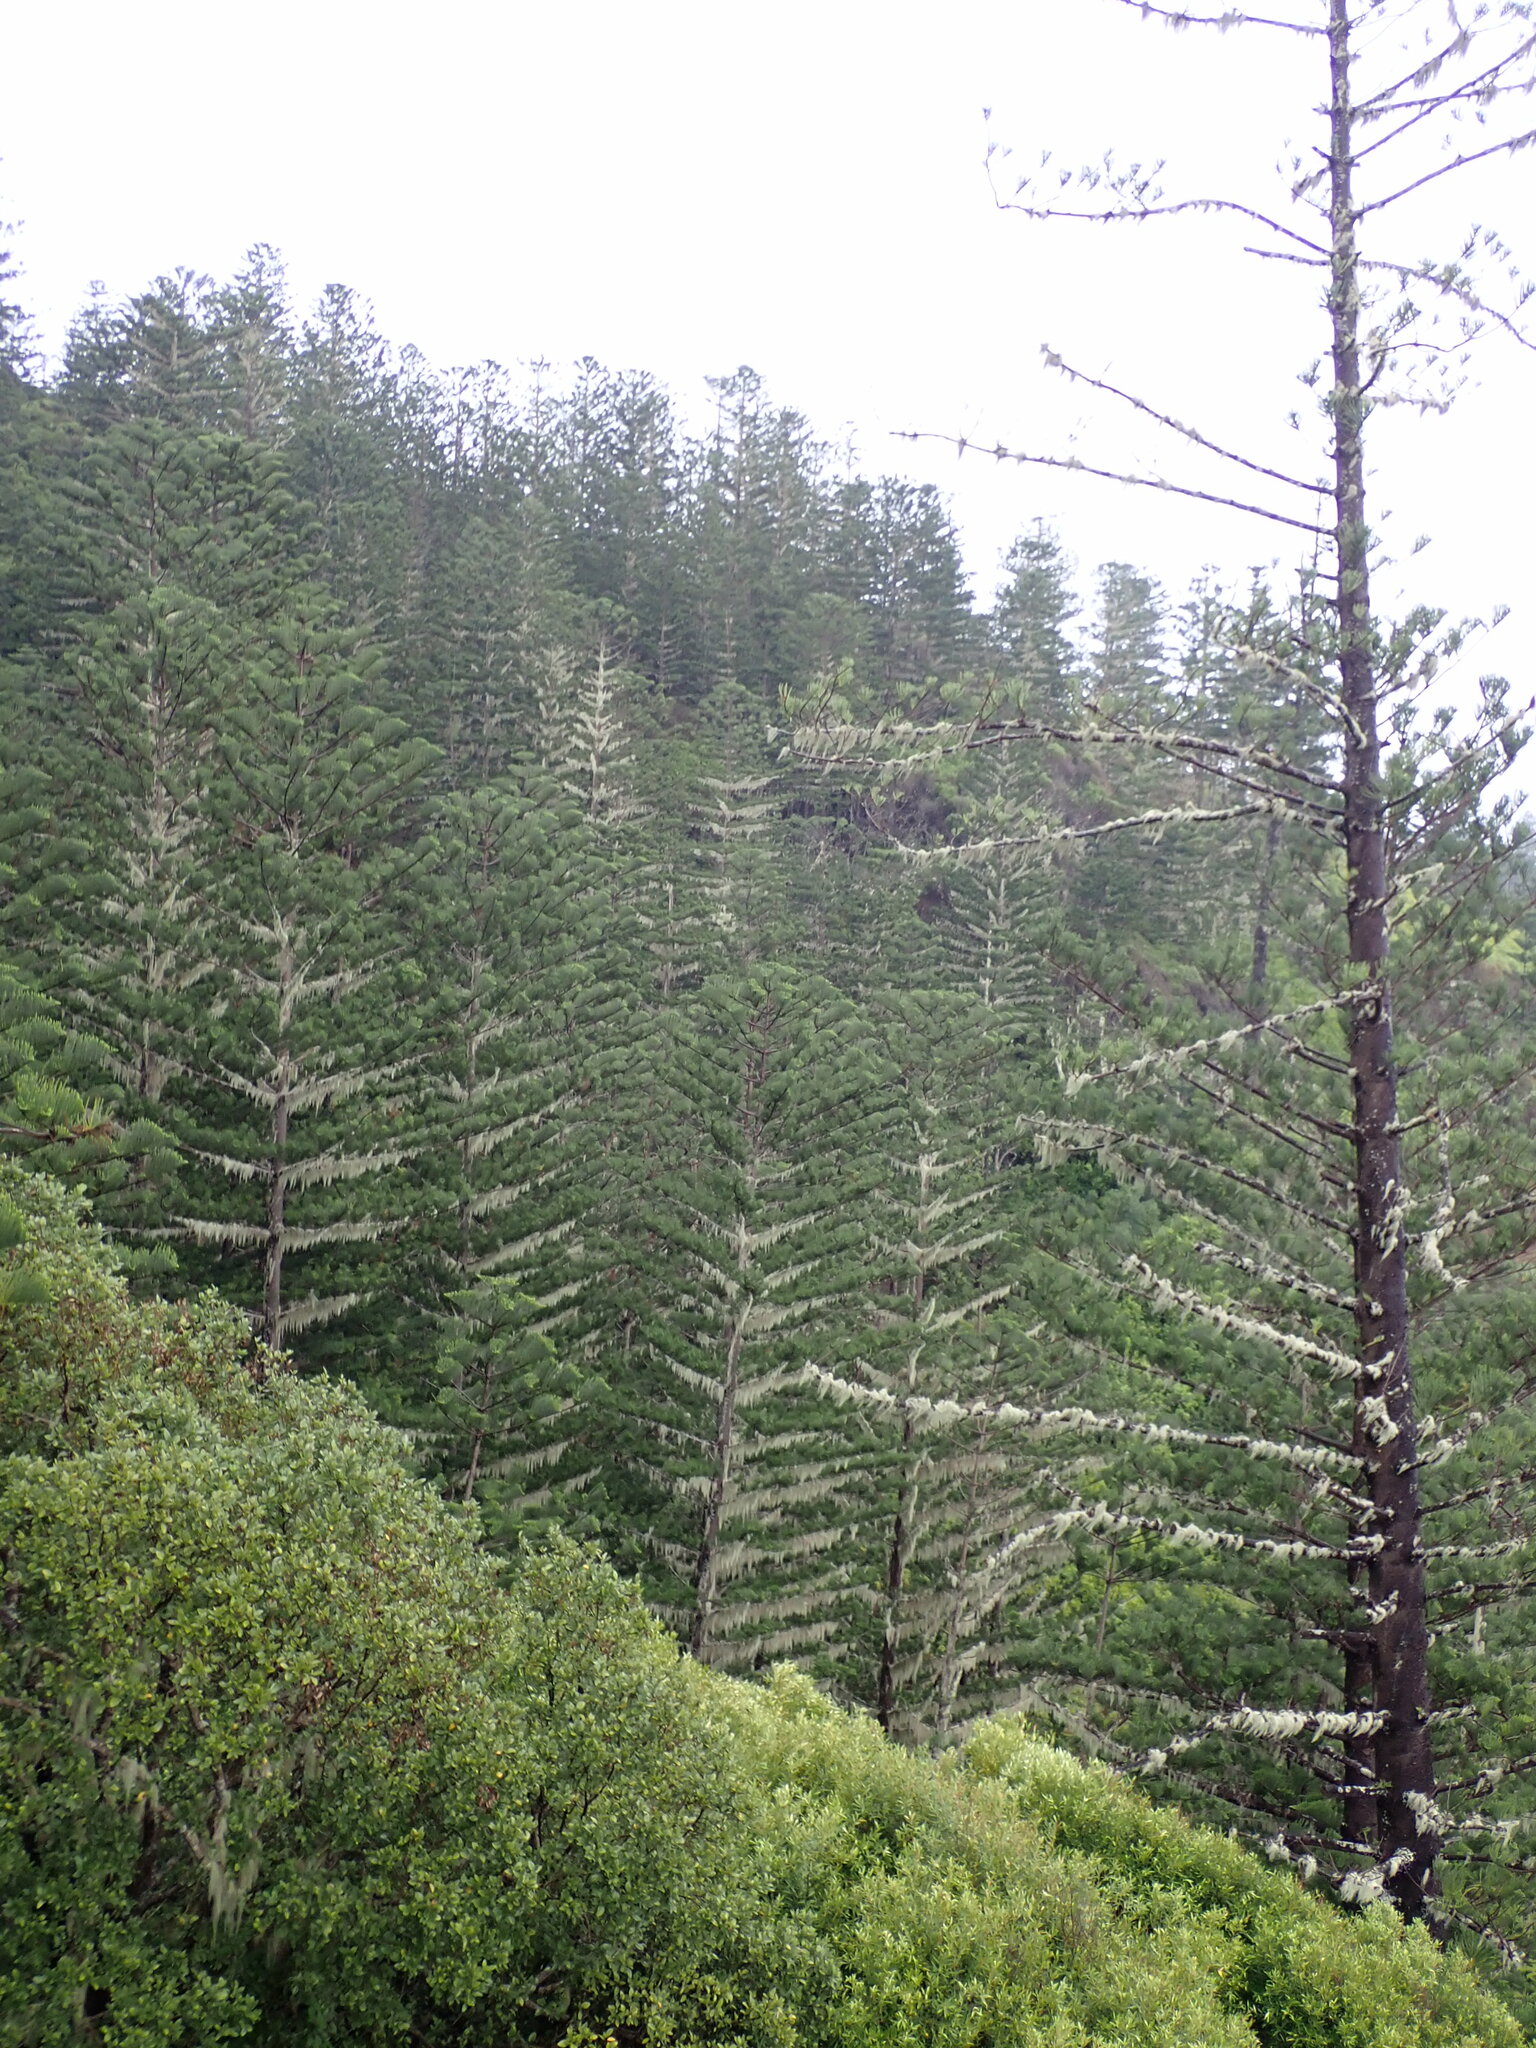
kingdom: Plantae
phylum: Tracheophyta
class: Pinopsida
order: Pinales
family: Araucariaceae
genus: Araucaria
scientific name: Araucaria heterophylla
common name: Norfolk island pine
